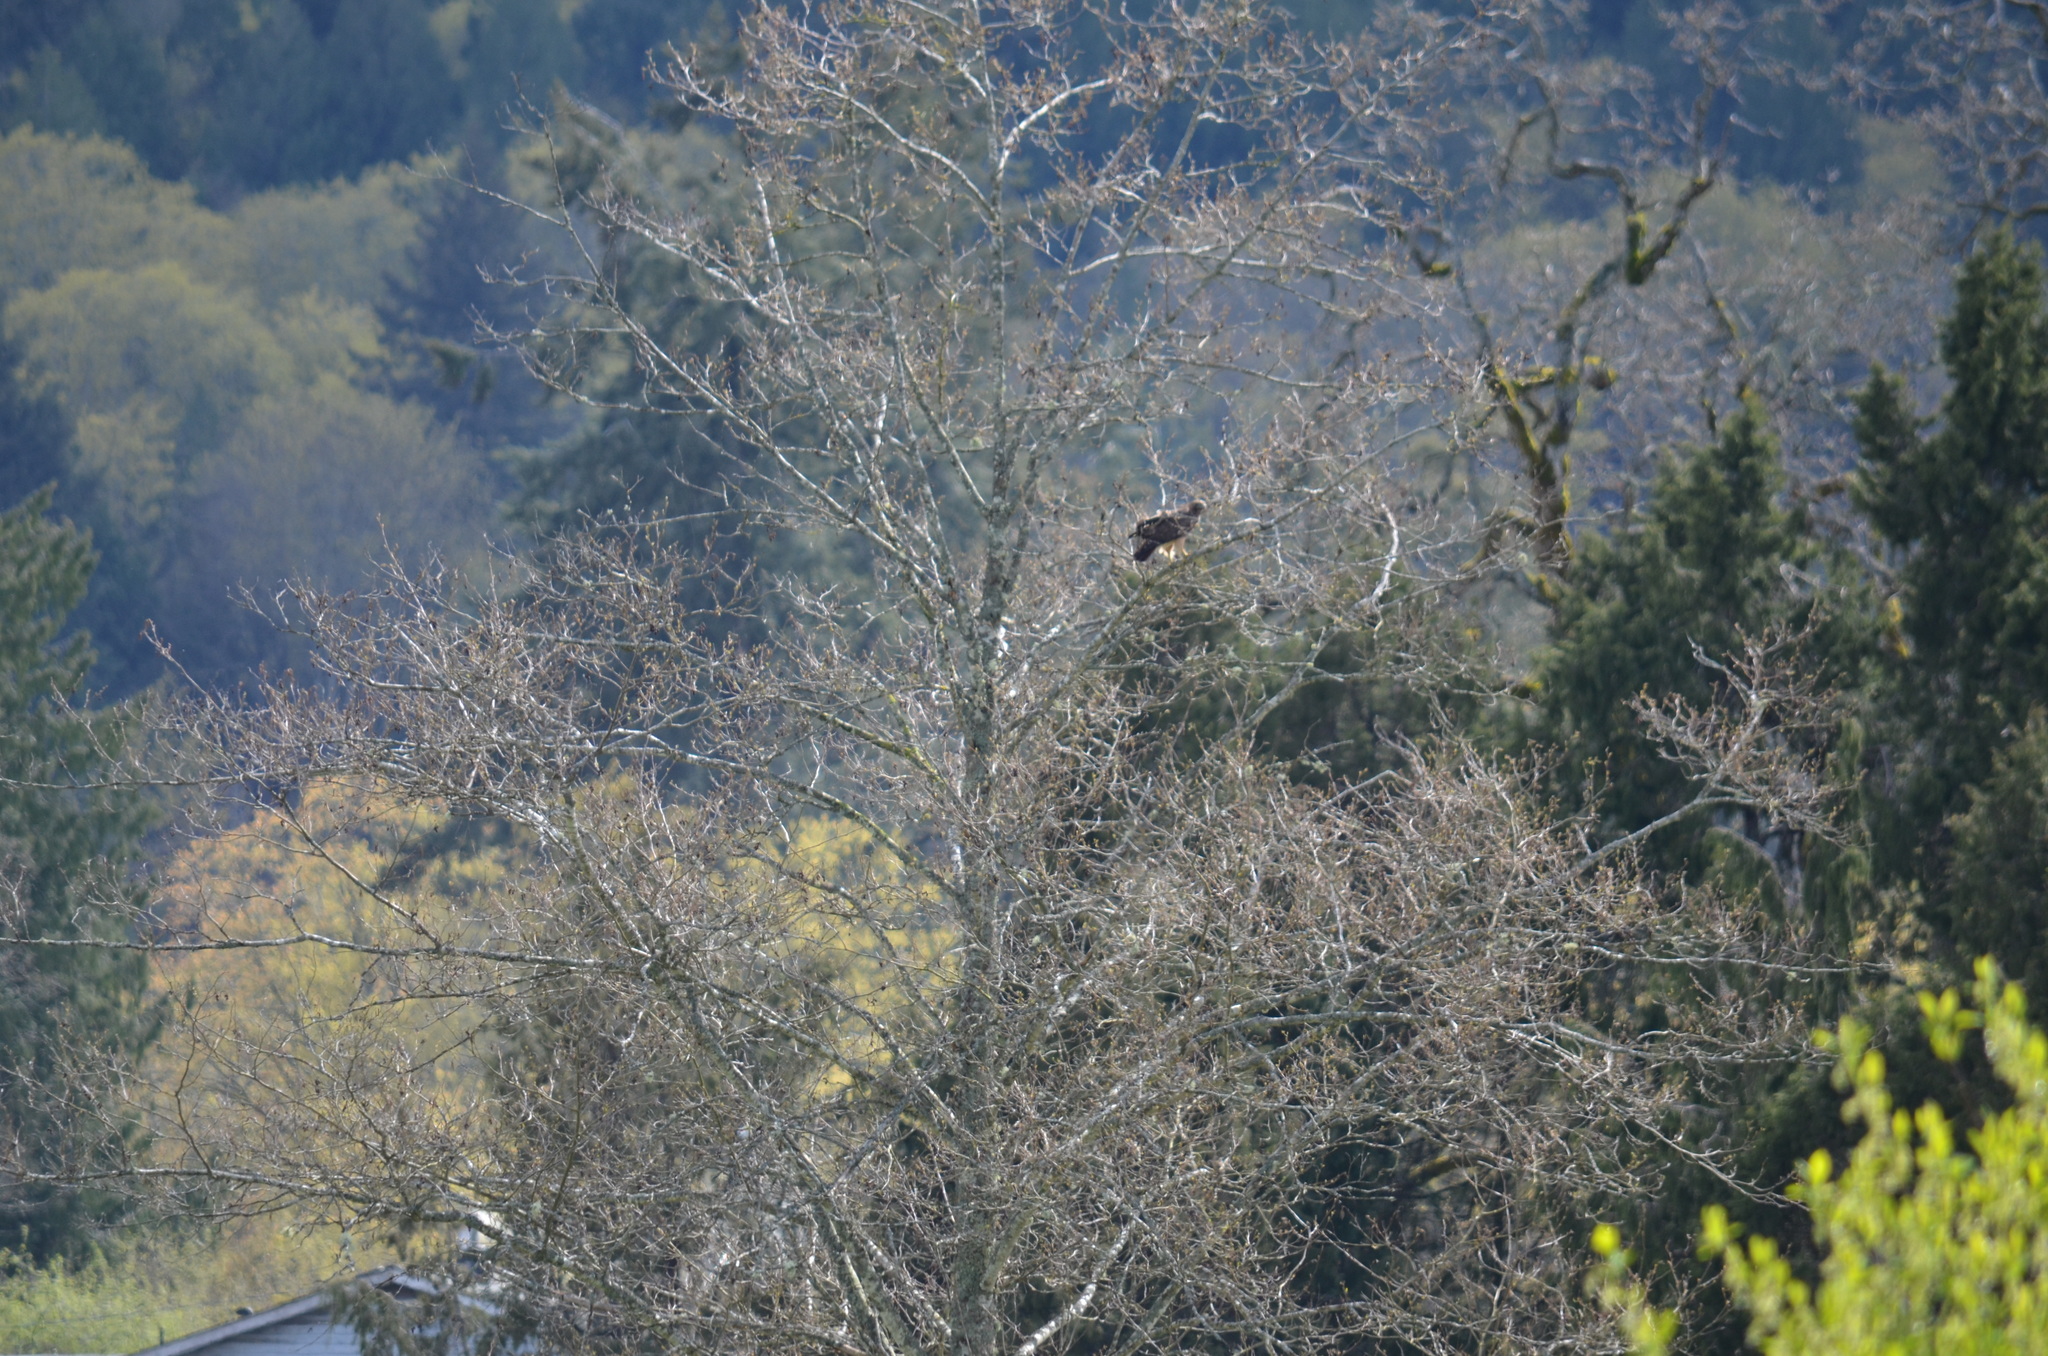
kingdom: Animalia
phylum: Chordata
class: Aves
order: Accipitriformes
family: Accipitridae
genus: Buteo
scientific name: Buteo jamaicensis
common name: Red-tailed hawk
